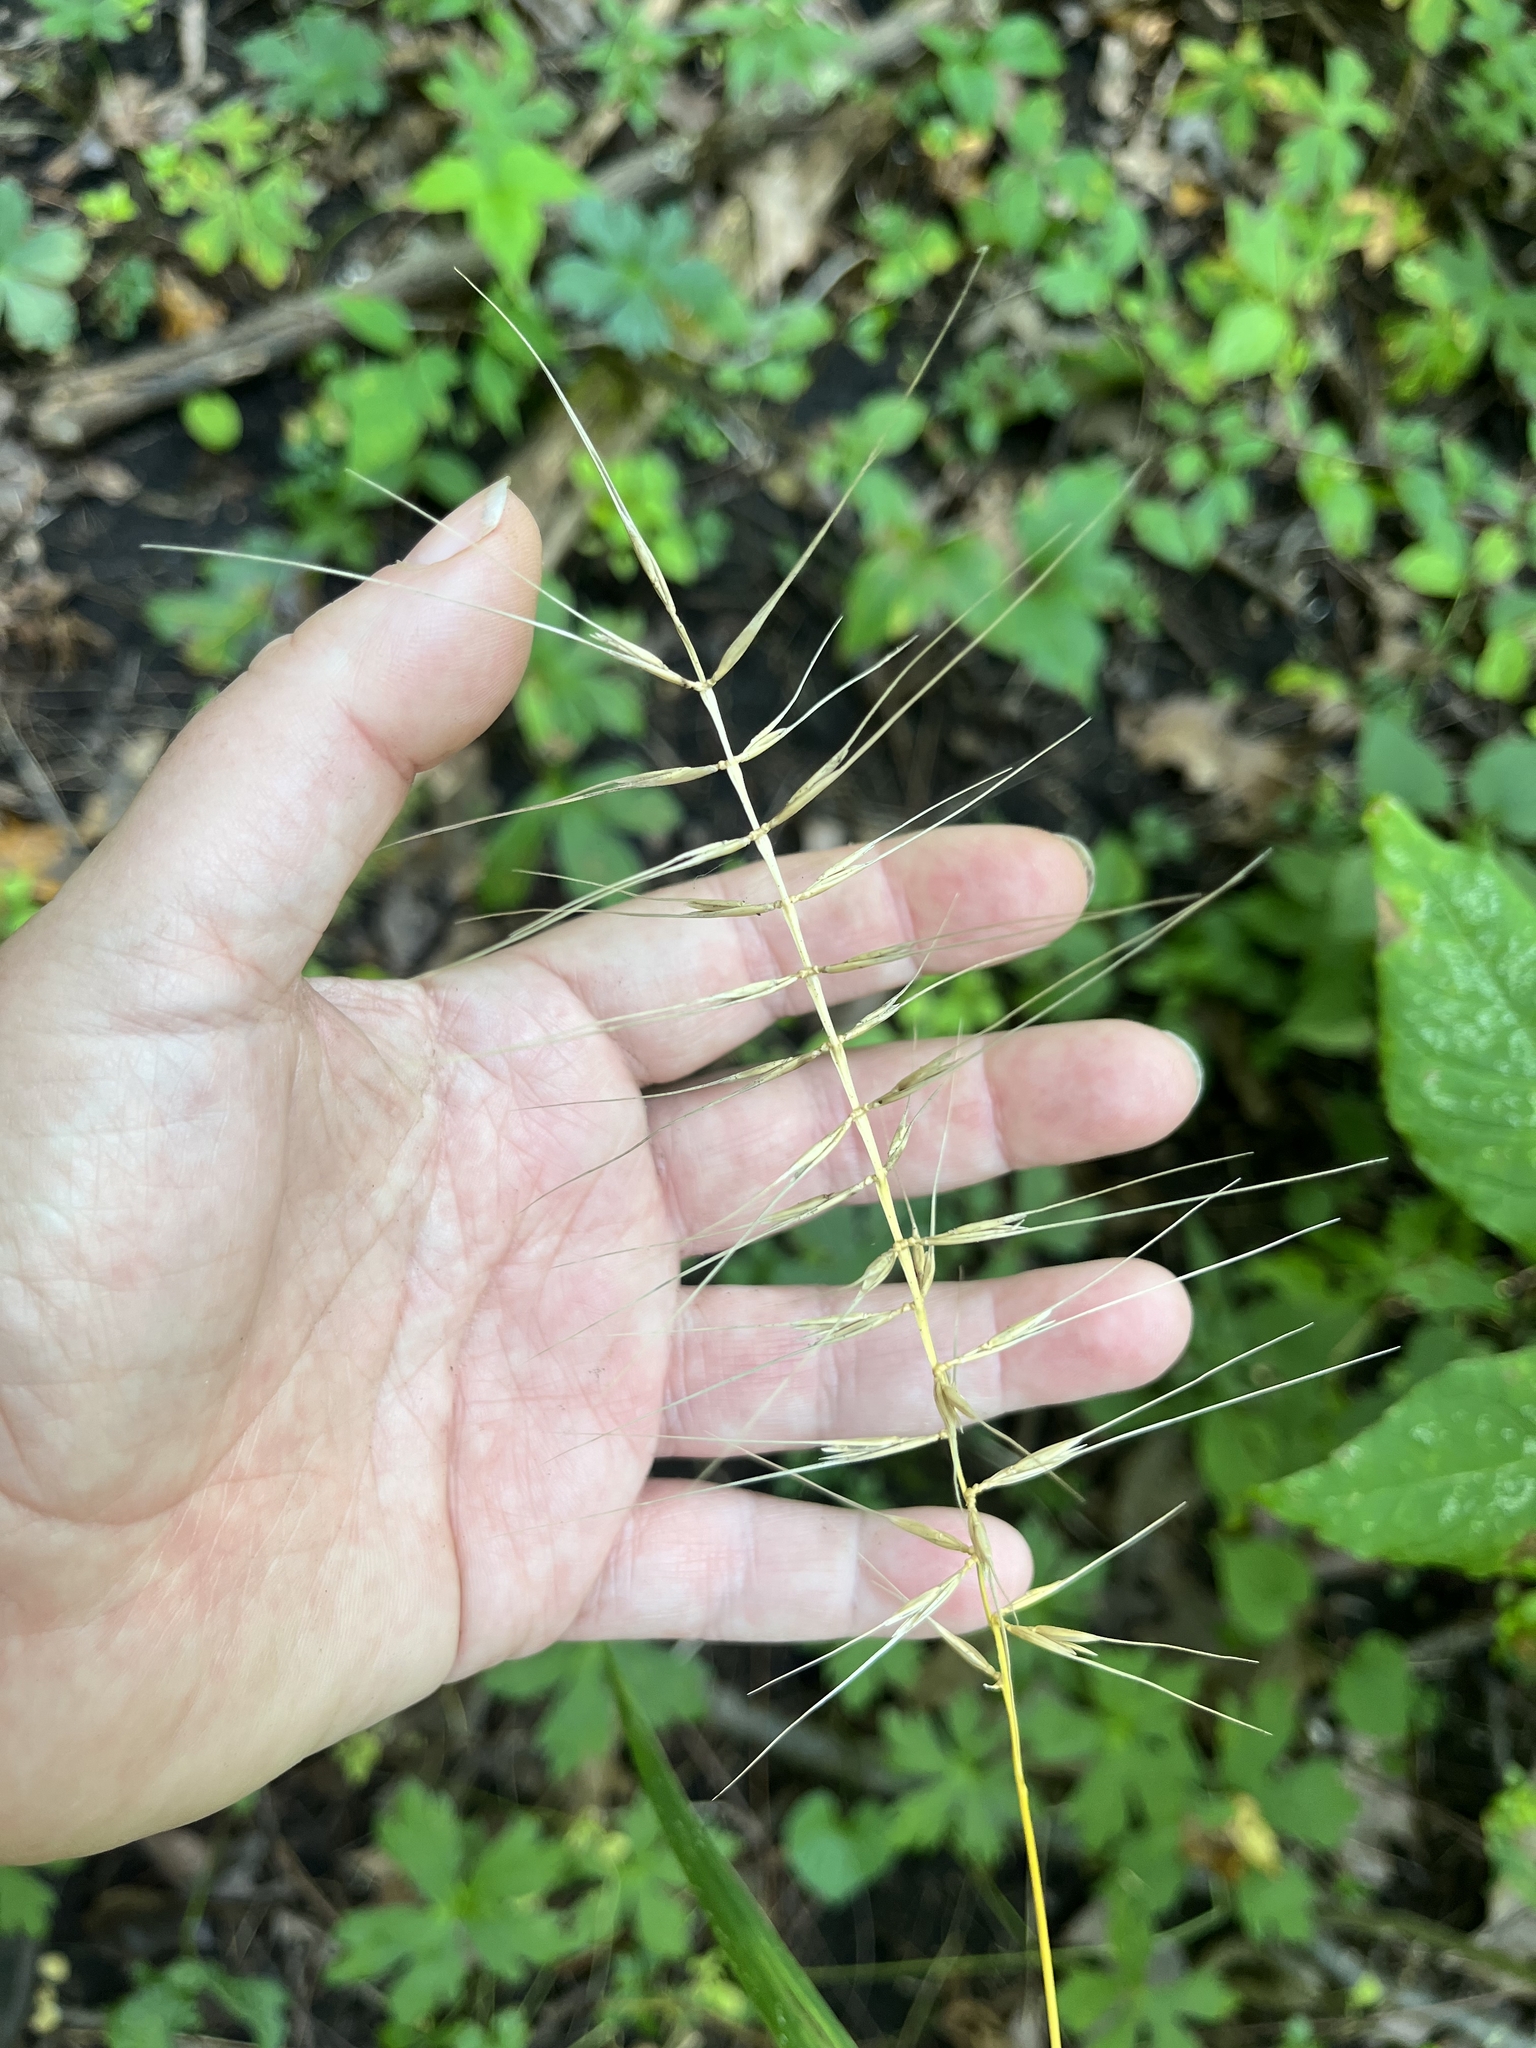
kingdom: Plantae
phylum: Tracheophyta
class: Liliopsida
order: Poales
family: Poaceae
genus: Elymus
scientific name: Elymus hystrix
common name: Bottlebrush grass
